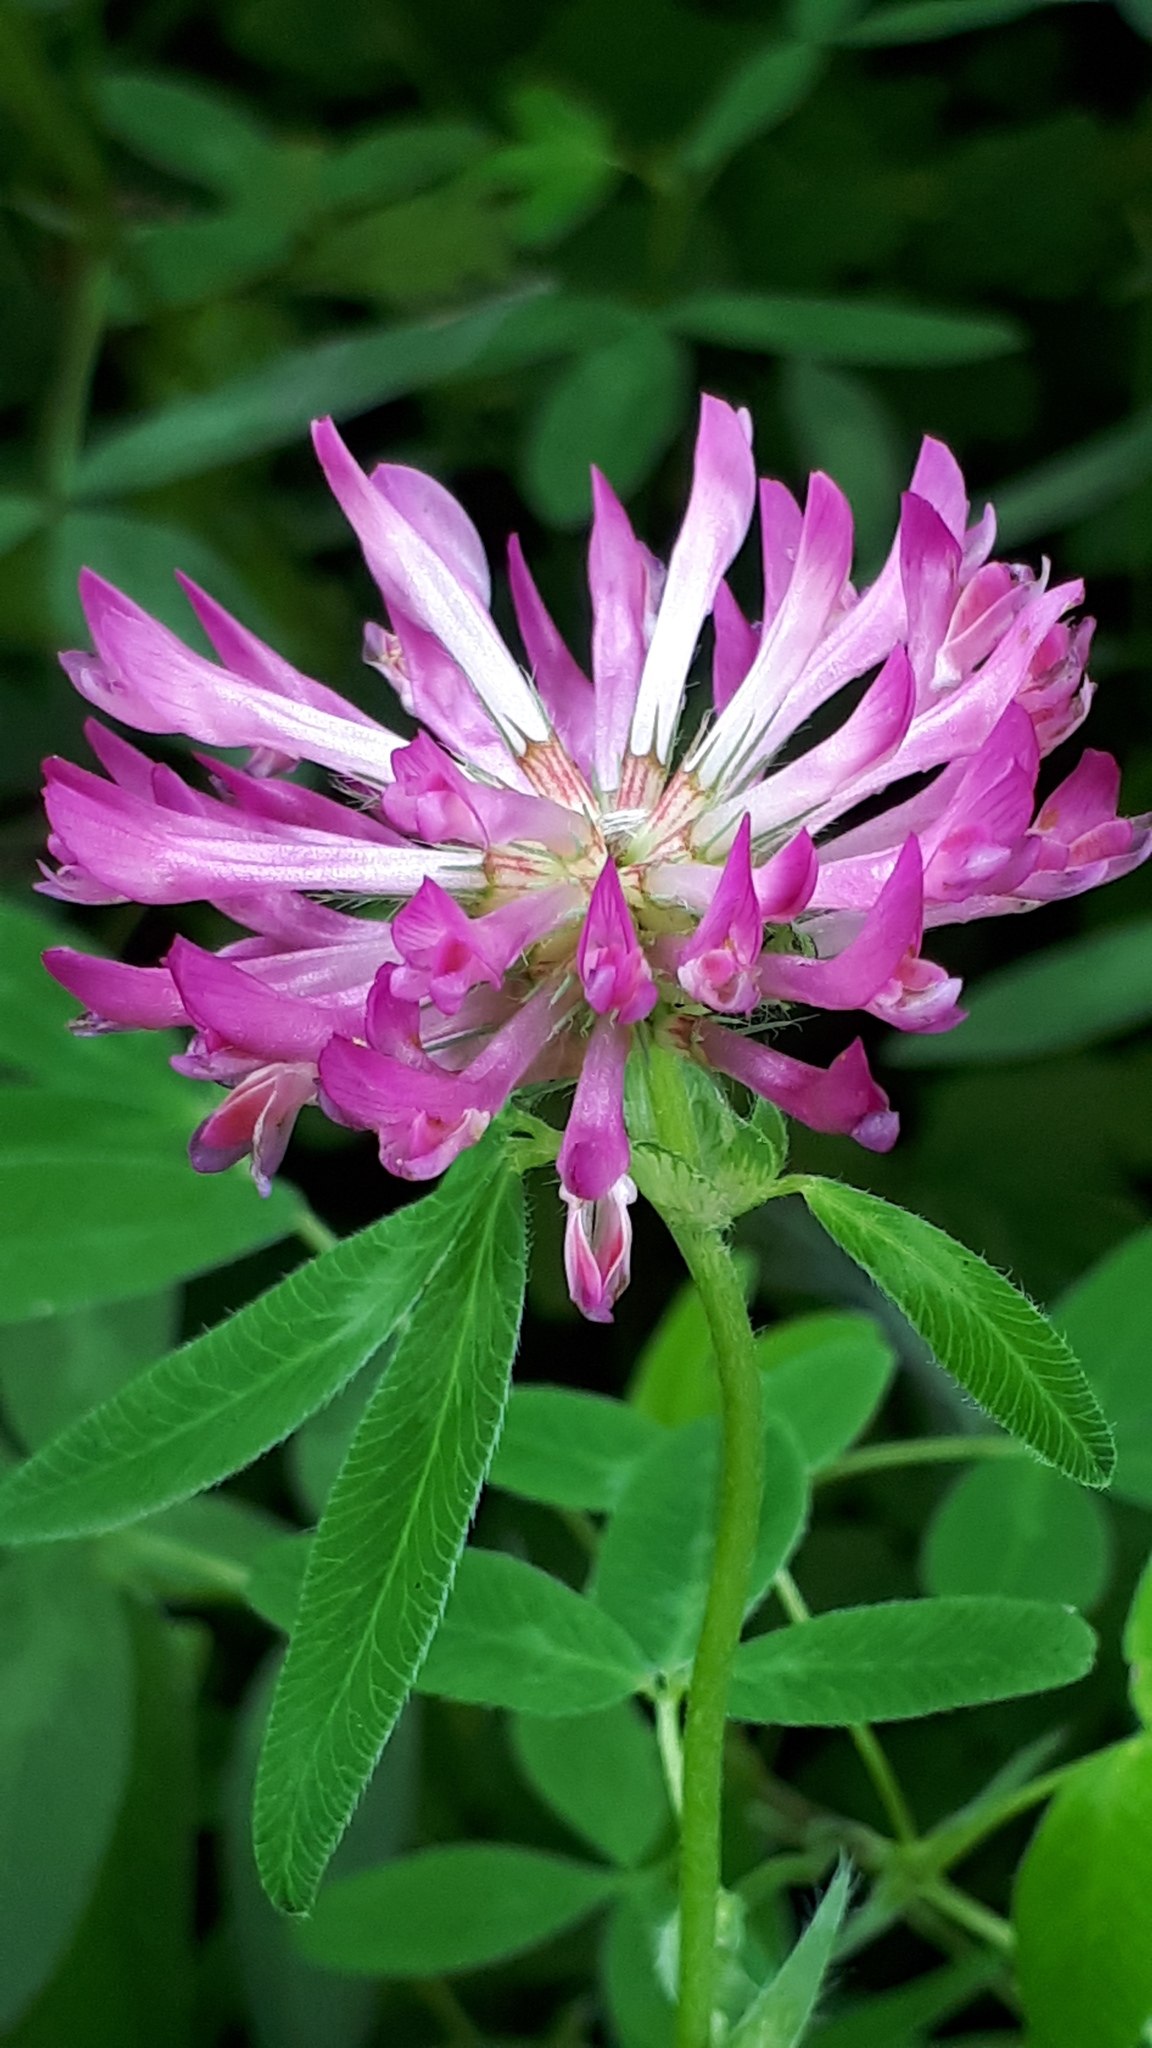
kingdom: Plantae
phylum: Tracheophyta
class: Magnoliopsida
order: Fabales
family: Fabaceae
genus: Trifolium
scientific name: Trifolium medium
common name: Zigzag clover
